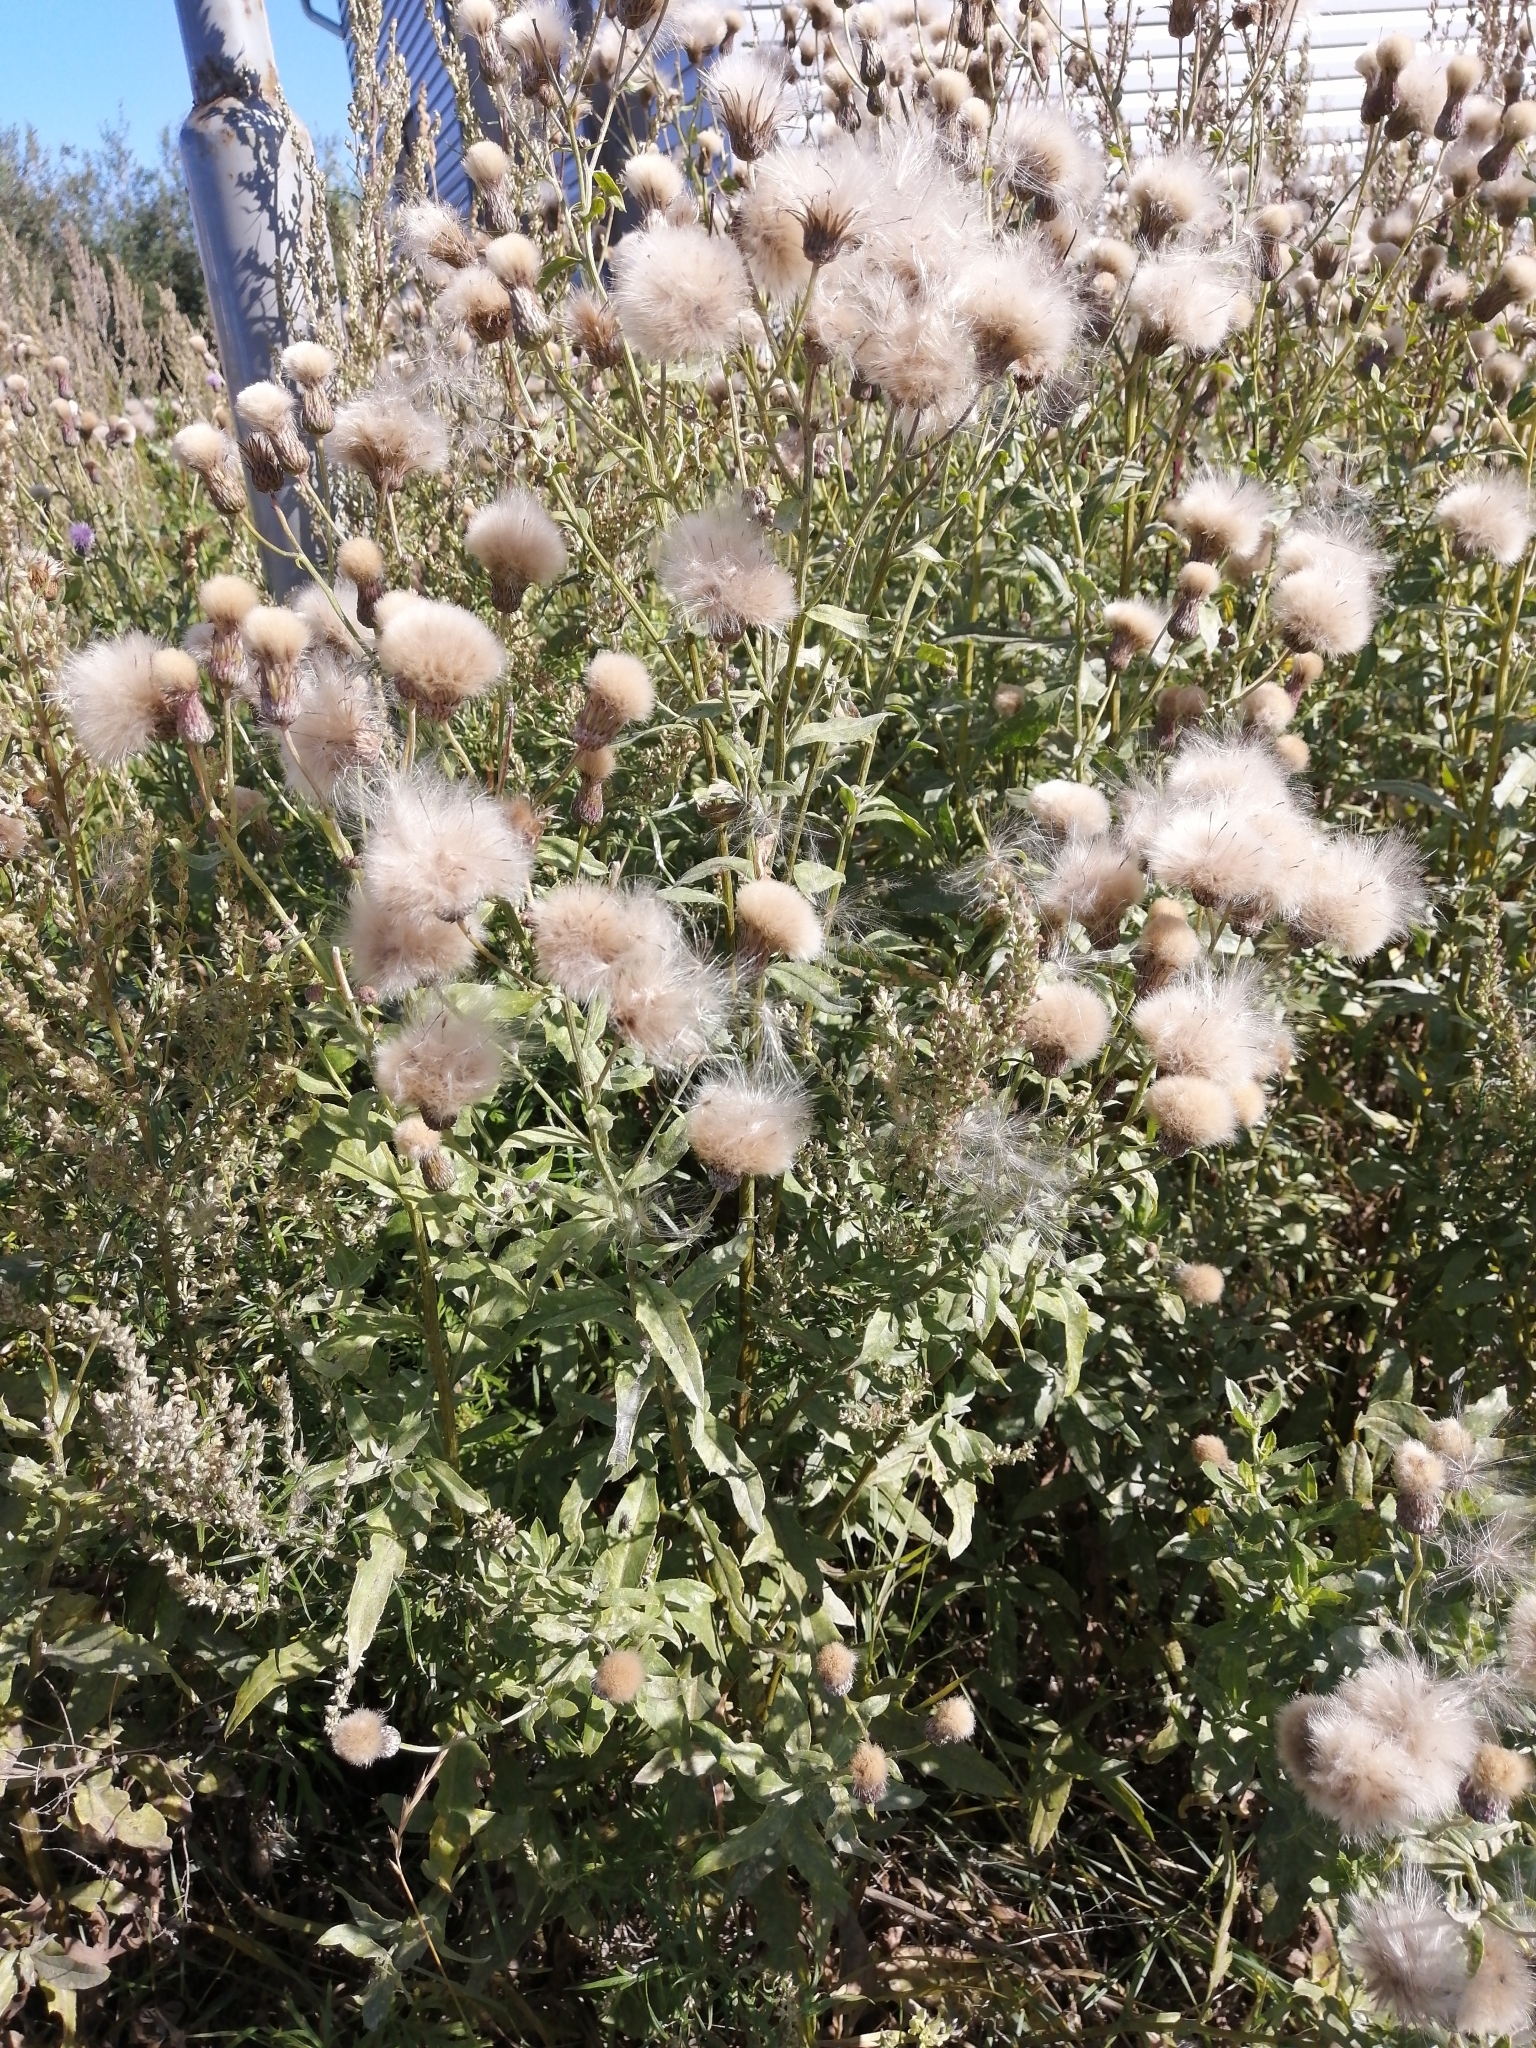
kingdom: Plantae
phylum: Tracheophyta
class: Magnoliopsida
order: Asterales
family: Asteraceae
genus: Cirsium
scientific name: Cirsium arvense
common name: Creeping thistle
